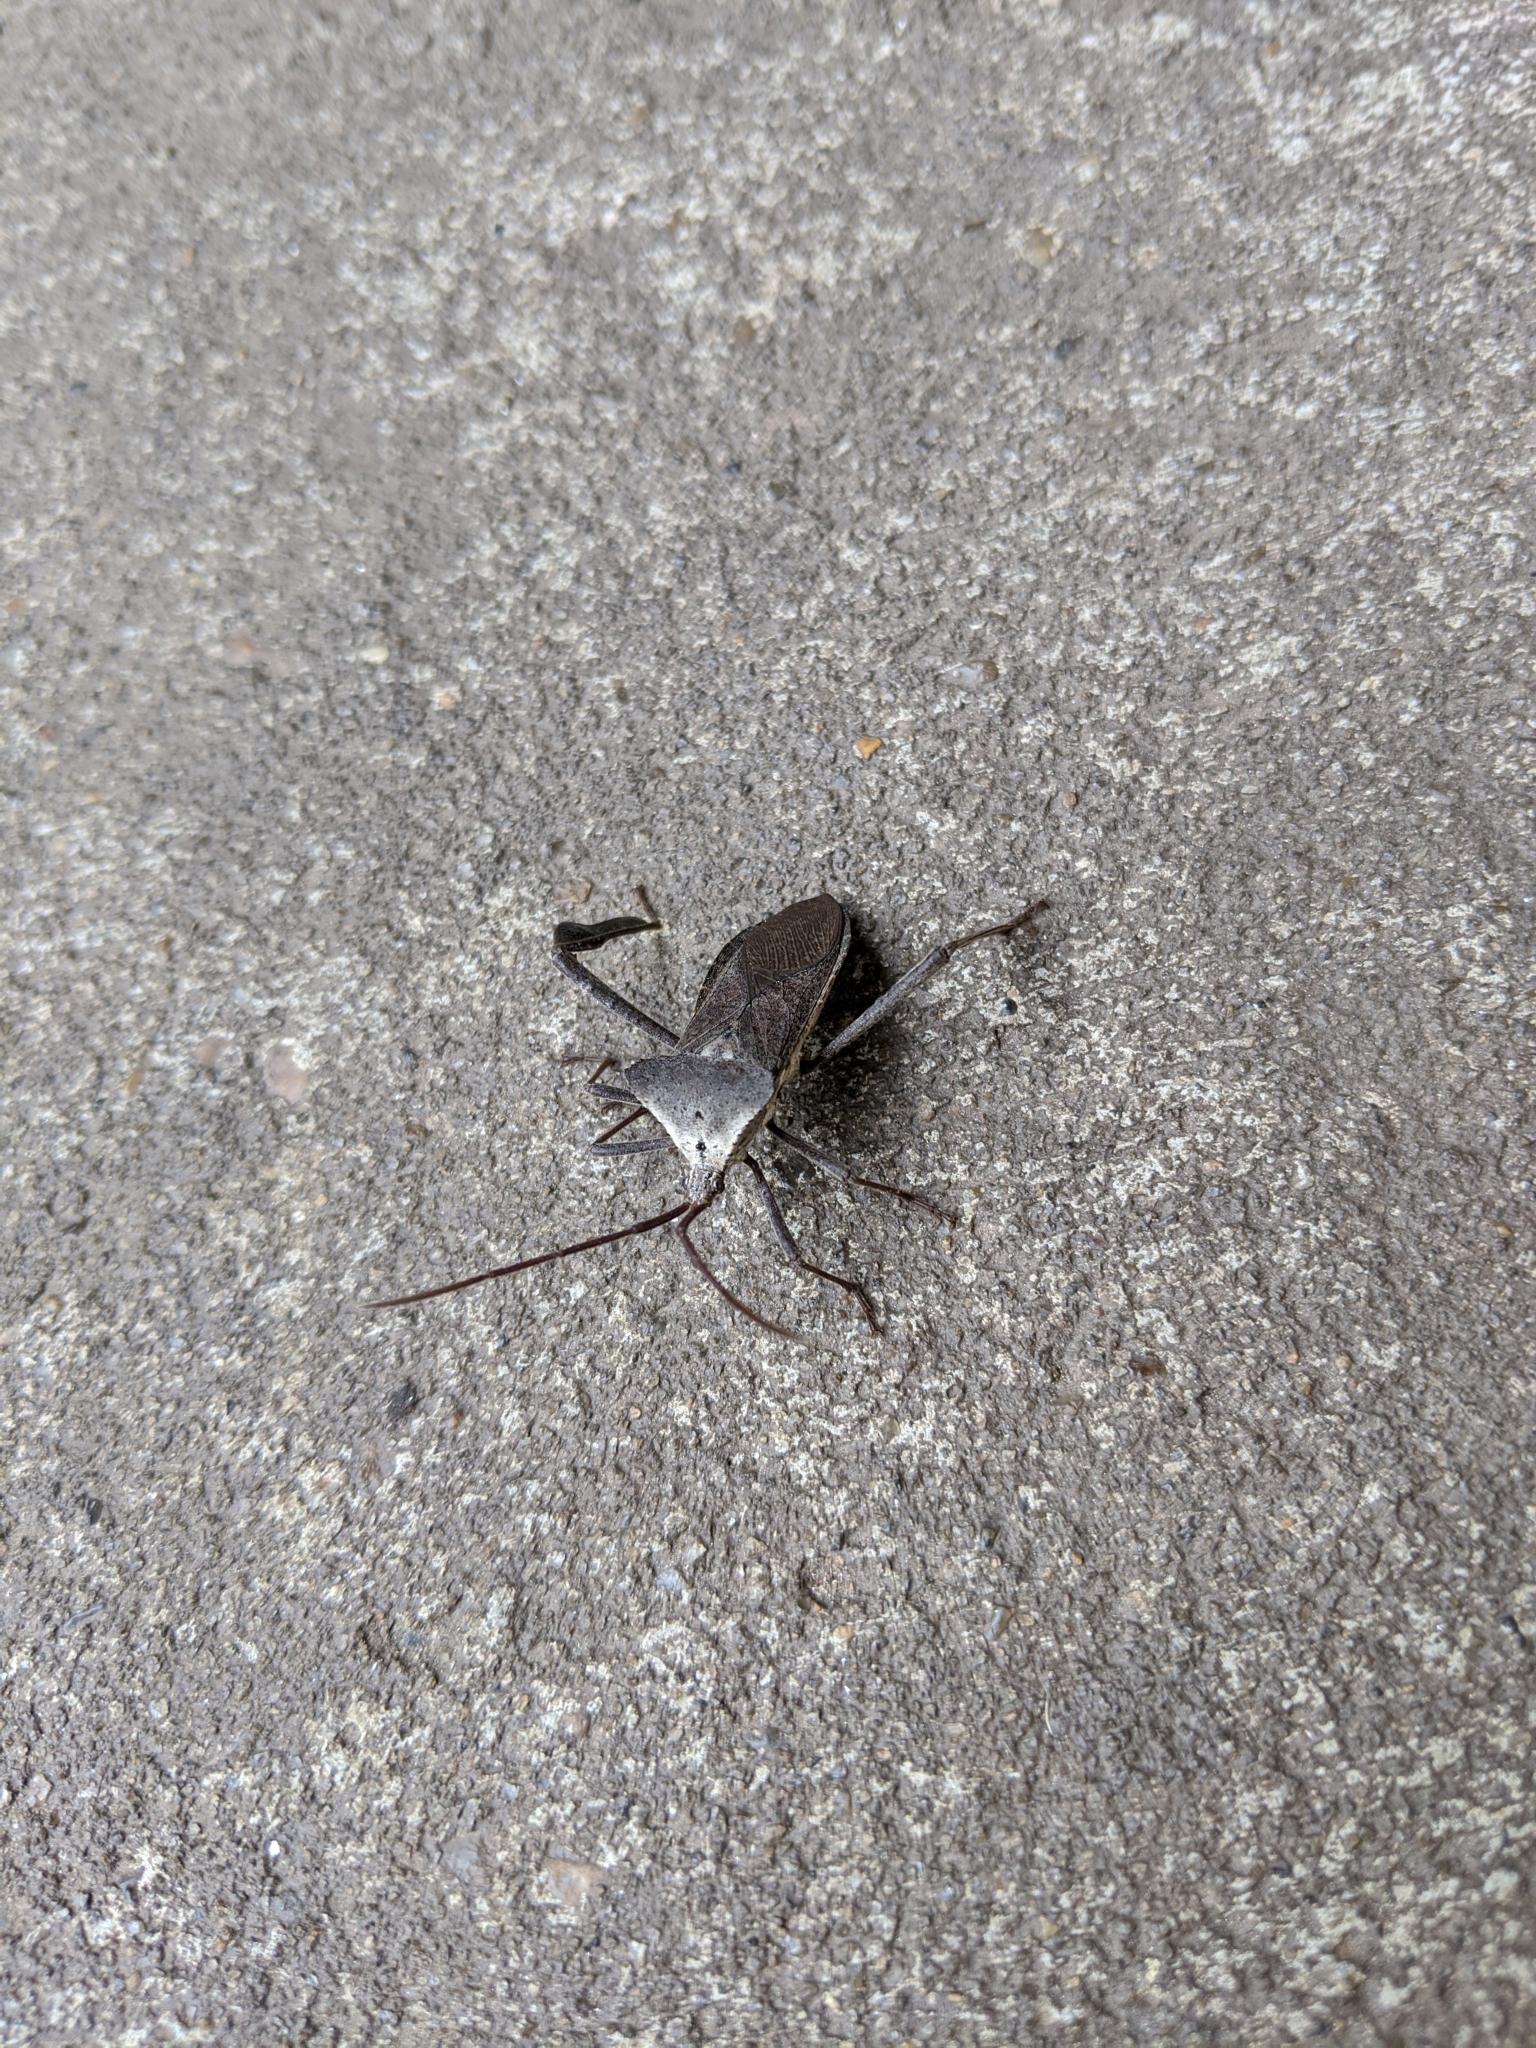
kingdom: Animalia
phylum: Arthropoda
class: Insecta
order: Hemiptera
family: Coreidae
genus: Acanthocephala
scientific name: Acanthocephala declivis
